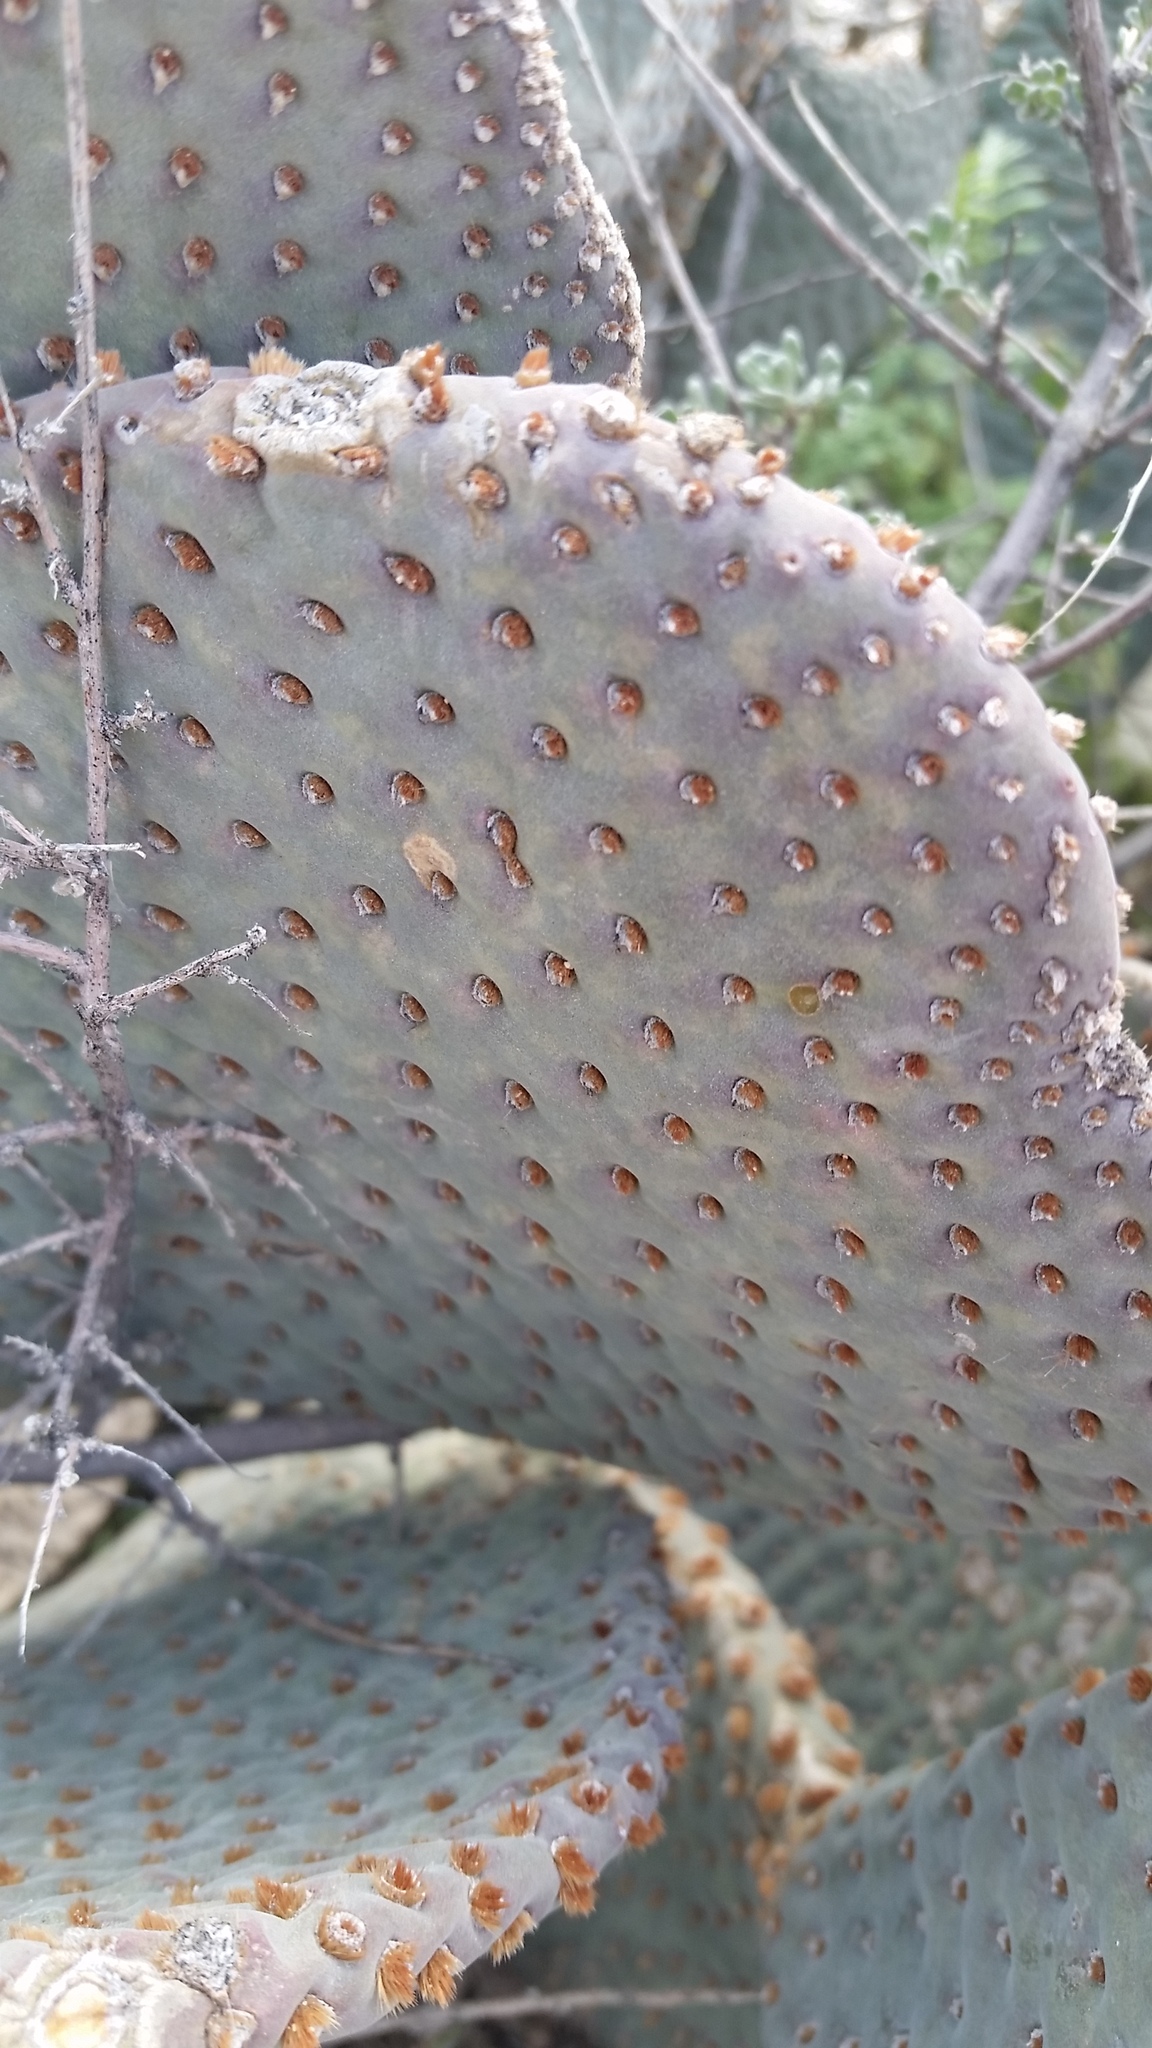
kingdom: Plantae
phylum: Tracheophyta
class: Magnoliopsida
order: Caryophyllales
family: Cactaceae
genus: Opuntia
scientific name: Opuntia basilaris
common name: Beavertail prickly-pear
